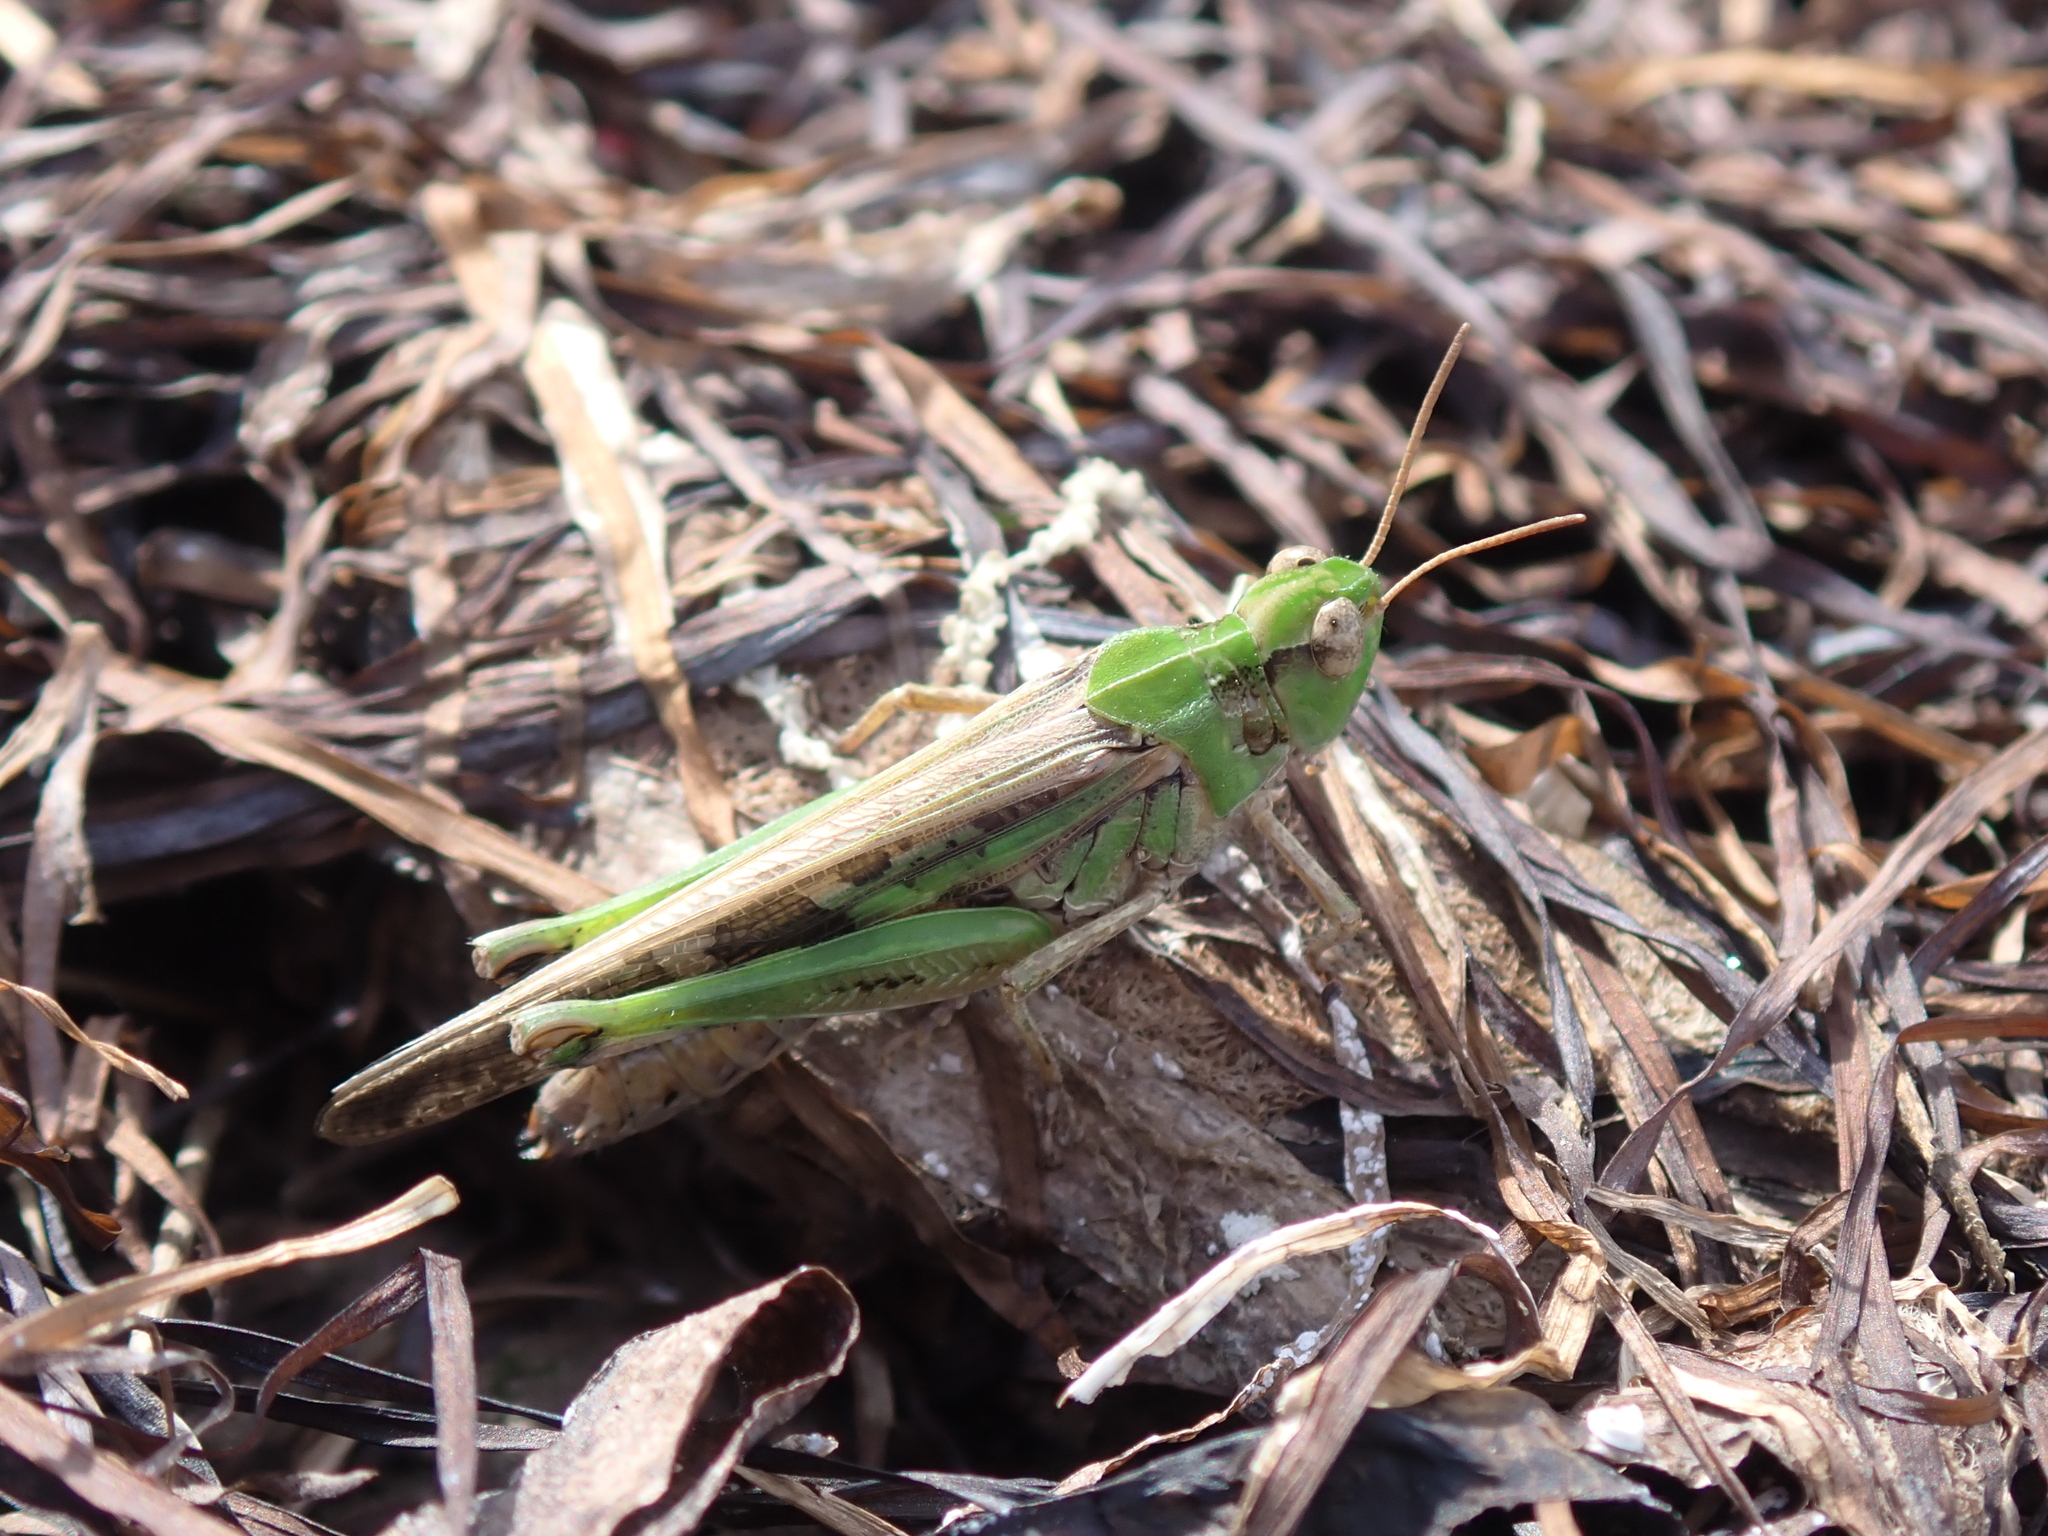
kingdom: Animalia
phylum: Arthropoda
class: Insecta
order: Orthoptera
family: Acrididae
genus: Aiolopus
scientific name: Aiolopus thalassinus
